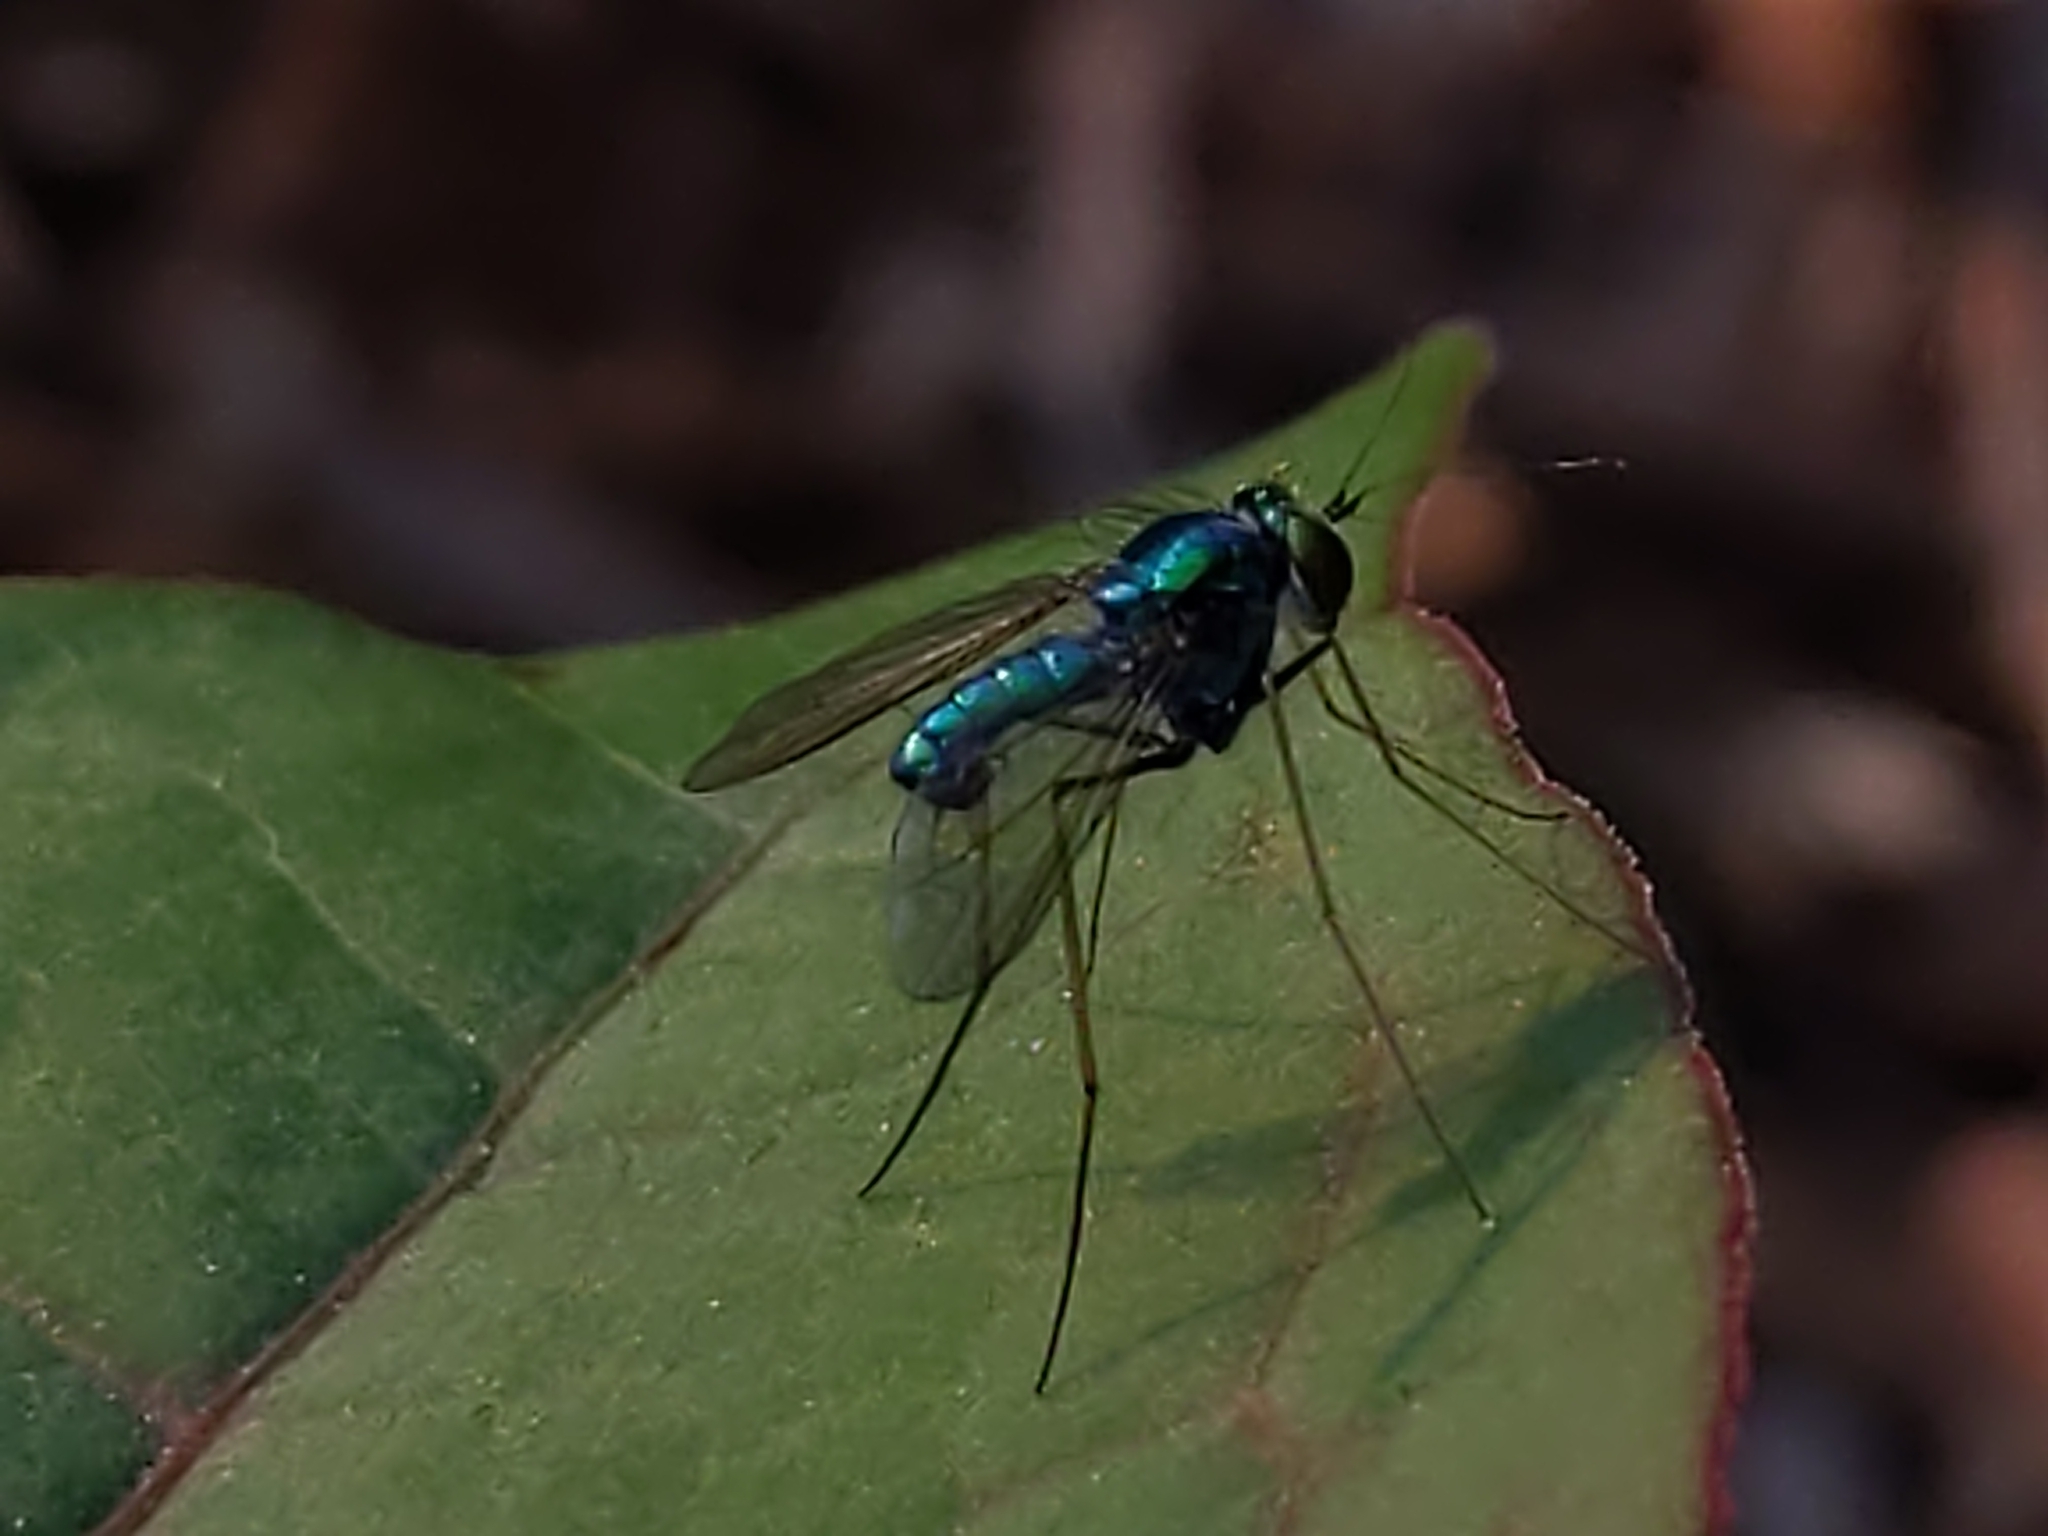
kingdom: Animalia
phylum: Arthropoda
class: Insecta
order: Diptera
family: Dolichopodidae
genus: Condylostylus
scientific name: Condylostylus comatus
